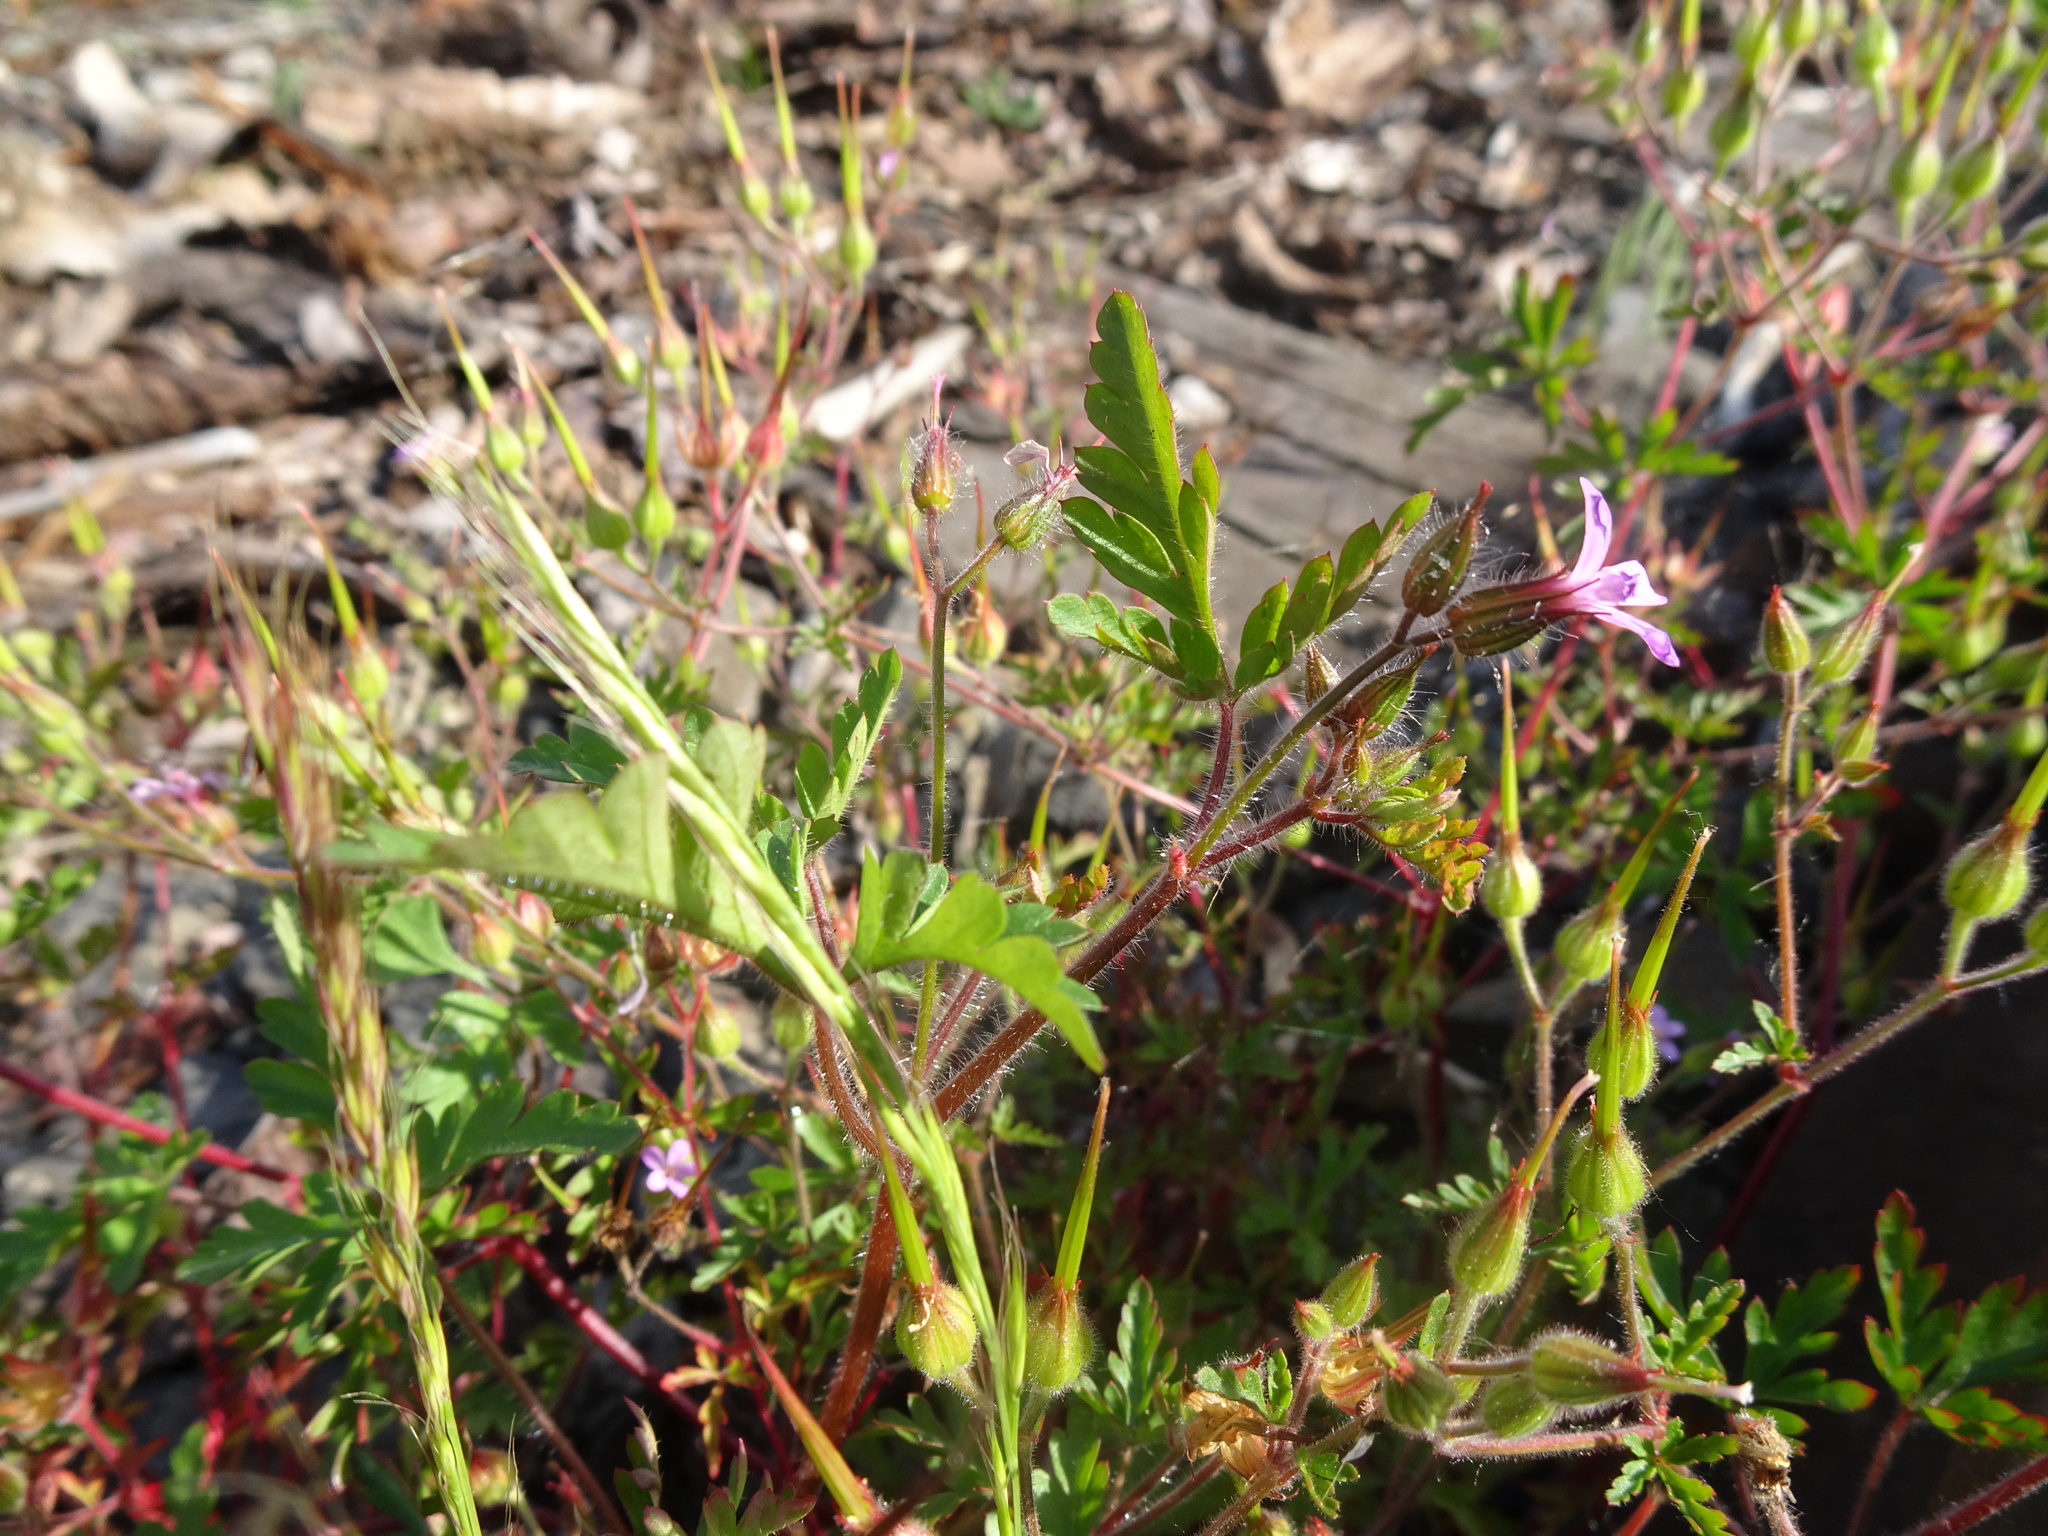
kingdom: Plantae
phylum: Tracheophyta
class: Magnoliopsida
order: Geraniales
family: Geraniaceae
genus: Geranium
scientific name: Geranium purpureum
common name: Little-robin
